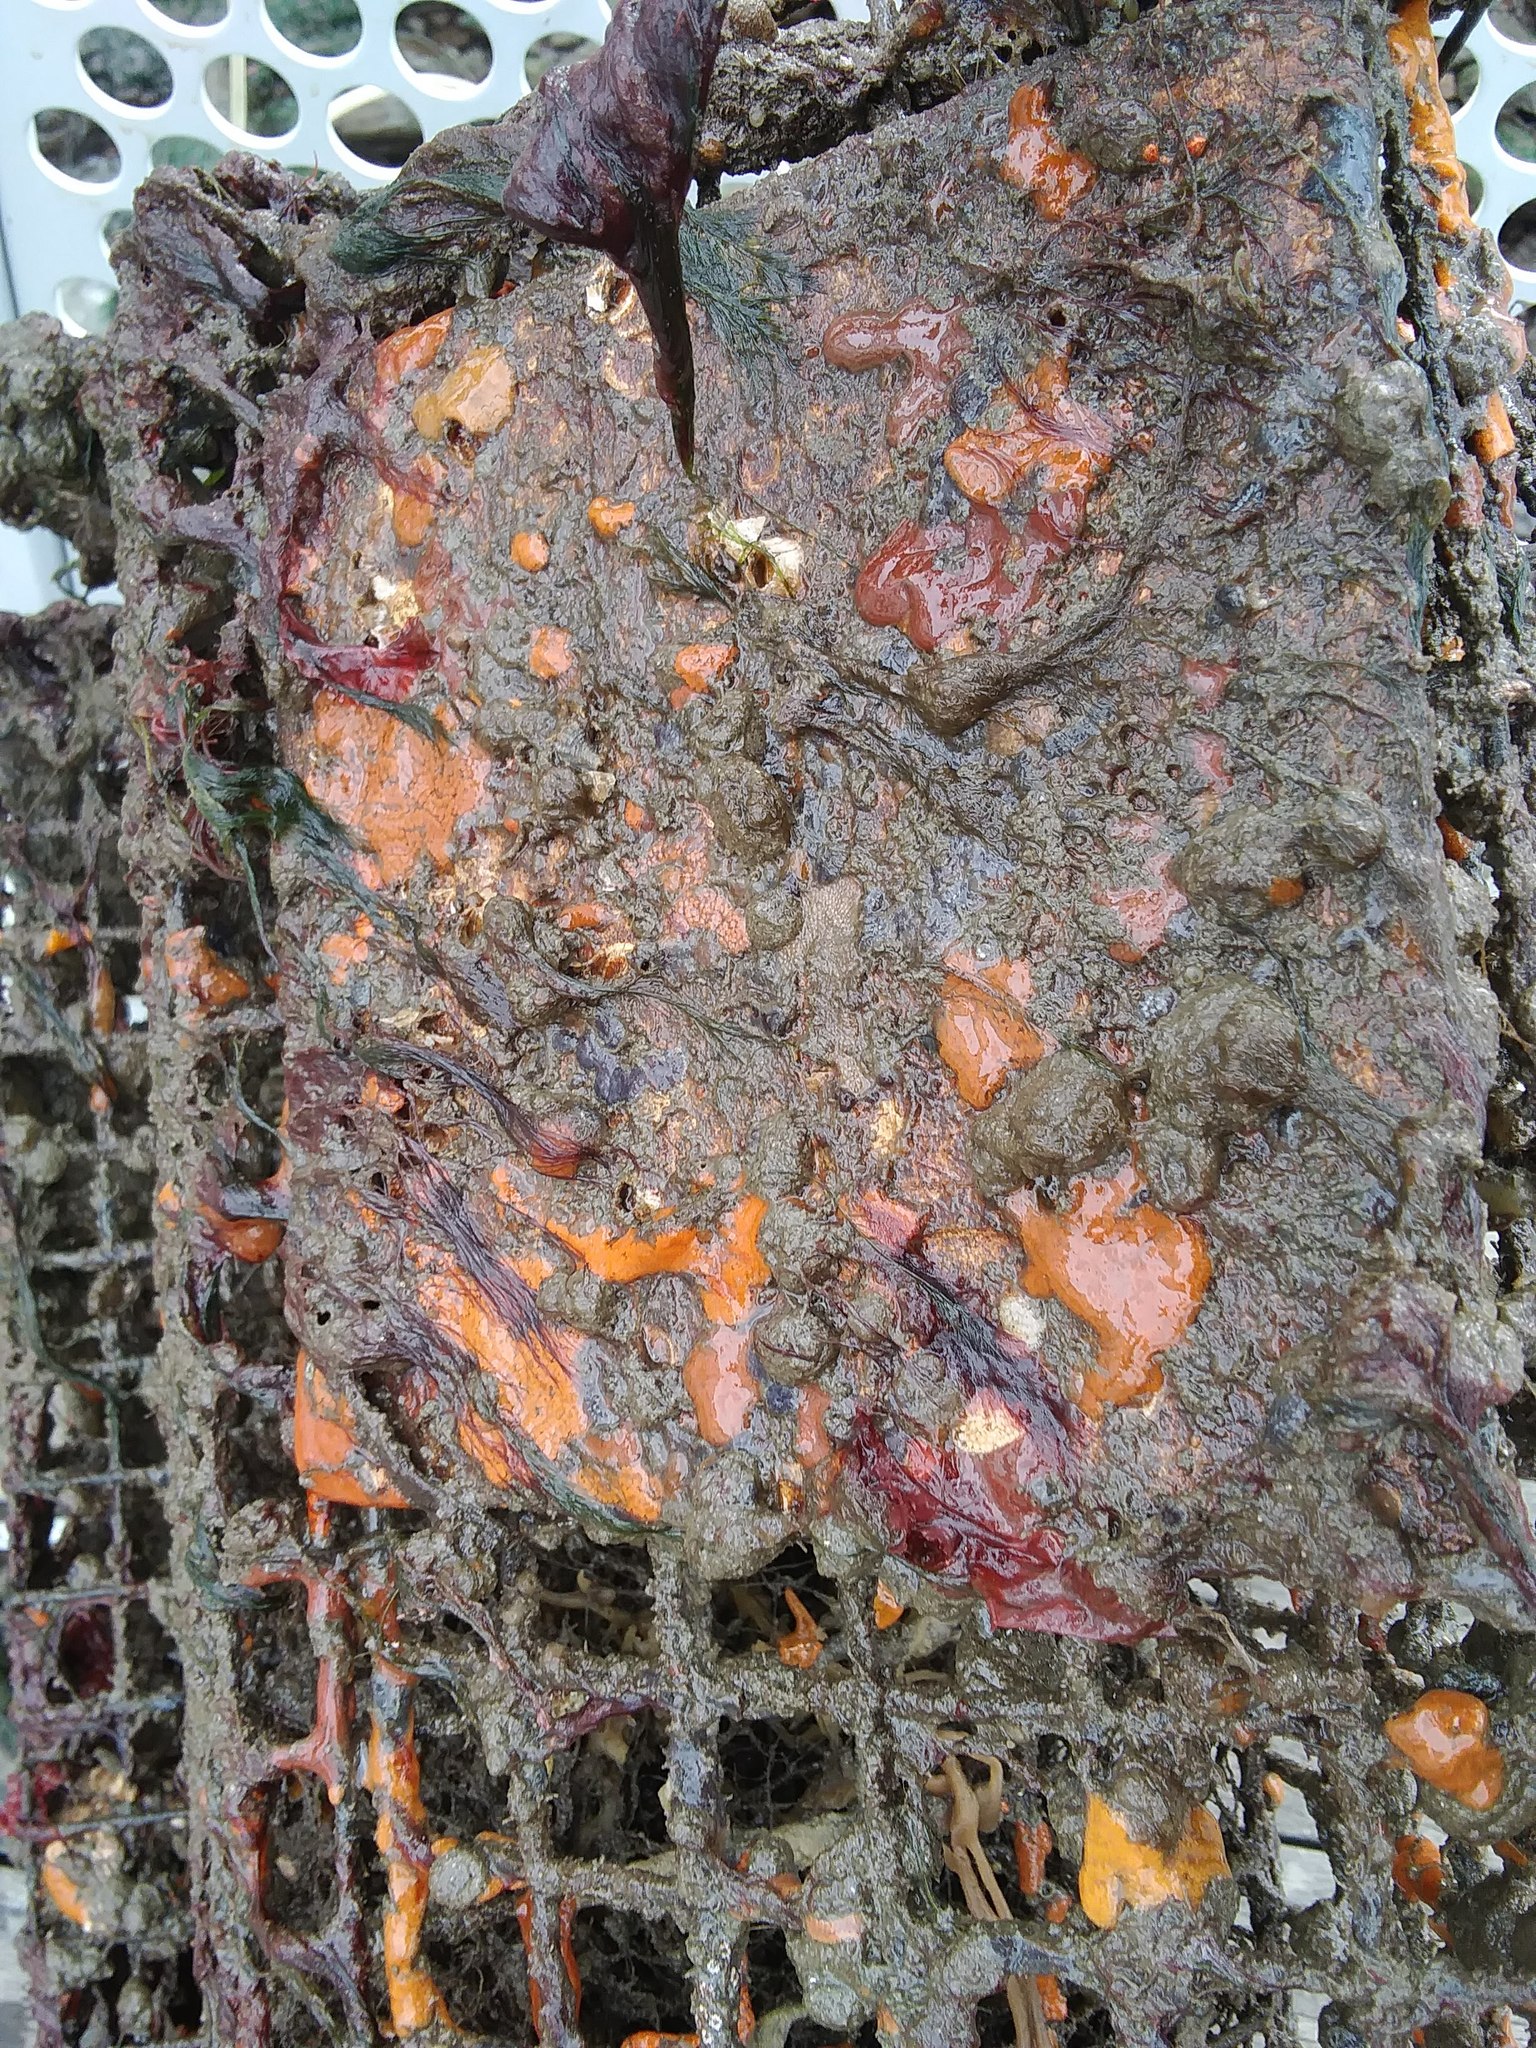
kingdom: Animalia
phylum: Chordata
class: Ascidiacea
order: Stolidobranchia
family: Styelidae
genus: Botrylloides
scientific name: Botrylloides violaceus
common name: Colonial sea squirt
